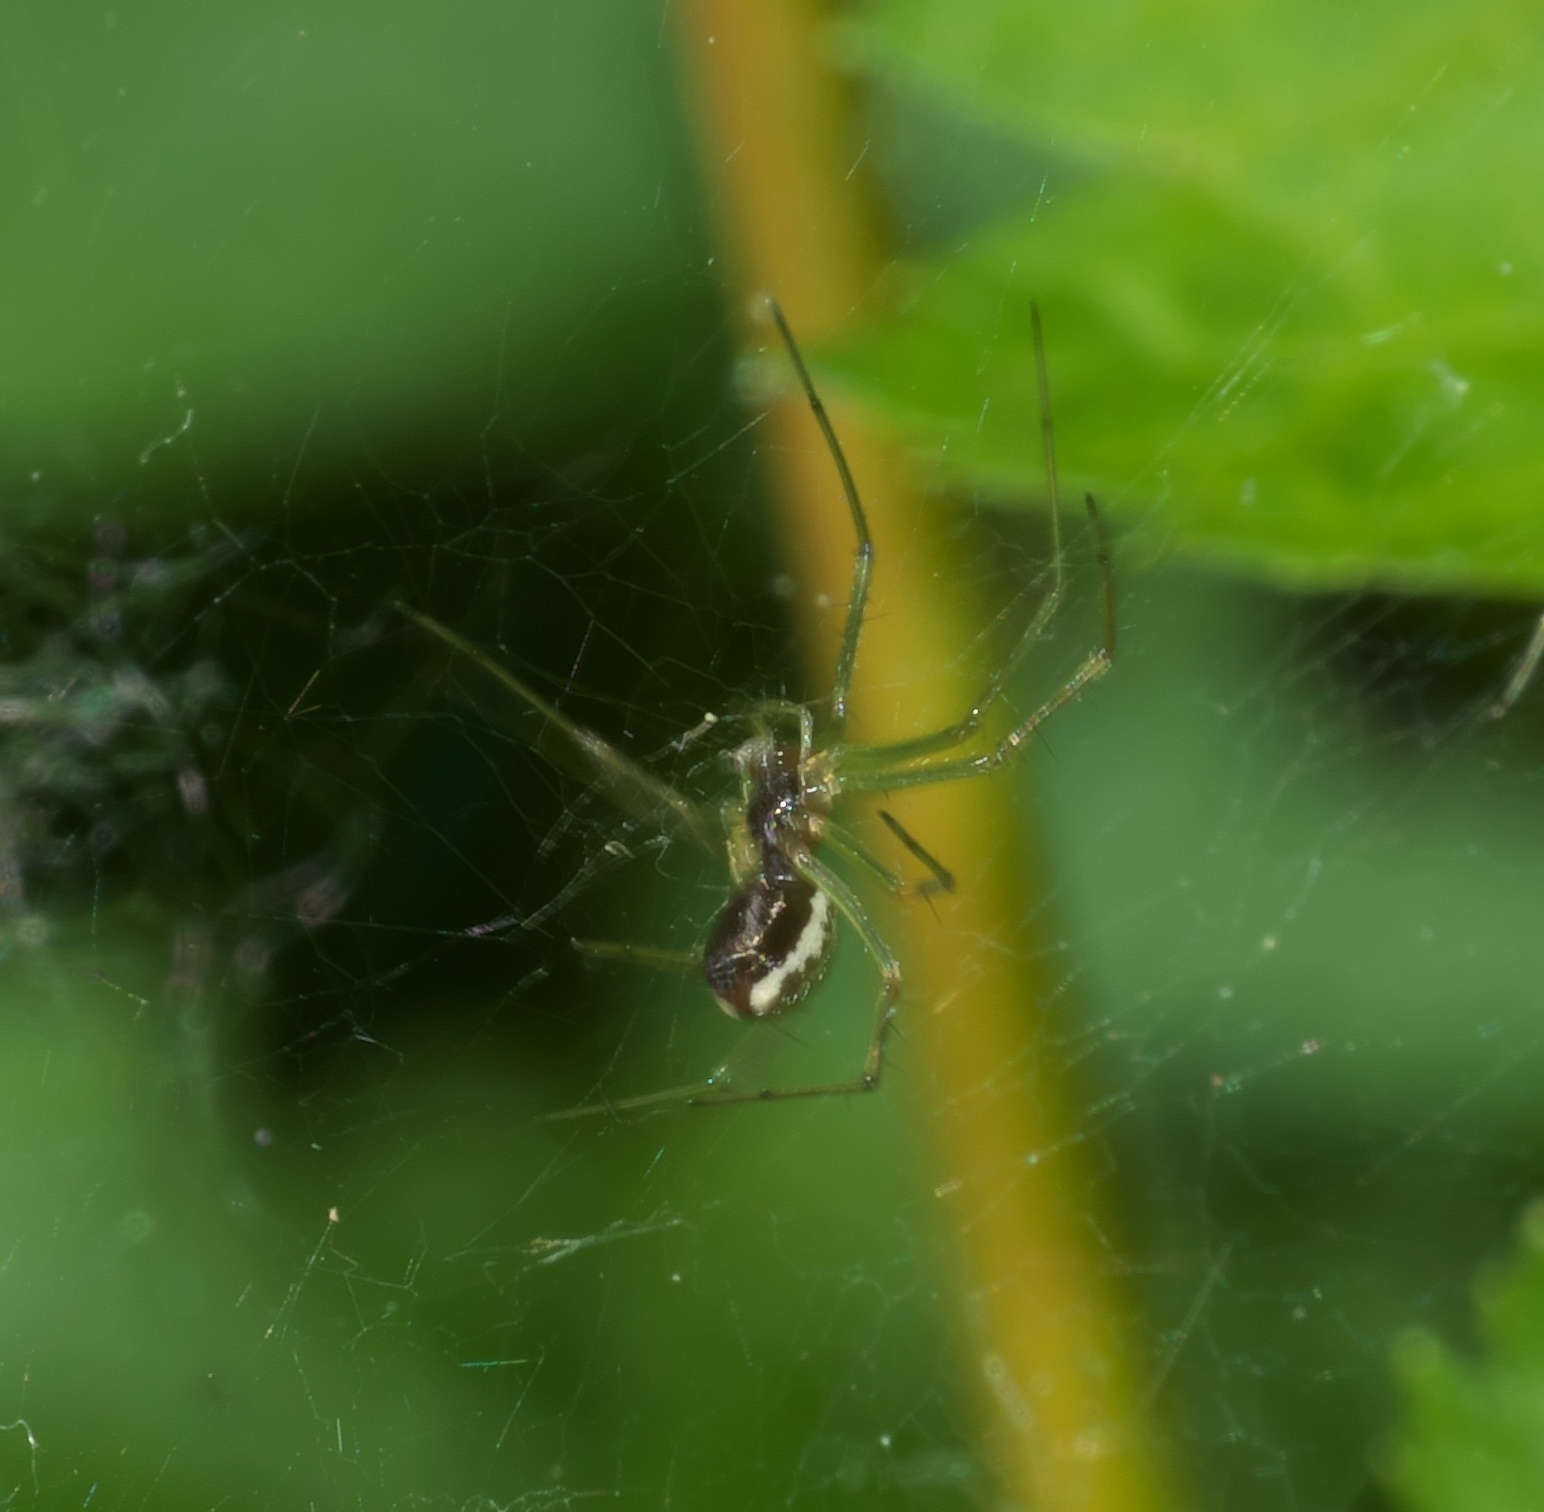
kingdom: Animalia
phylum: Arthropoda
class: Arachnida
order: Araneae
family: Linyphiidae
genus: Microlinyphia
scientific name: Microlinyphia dana
